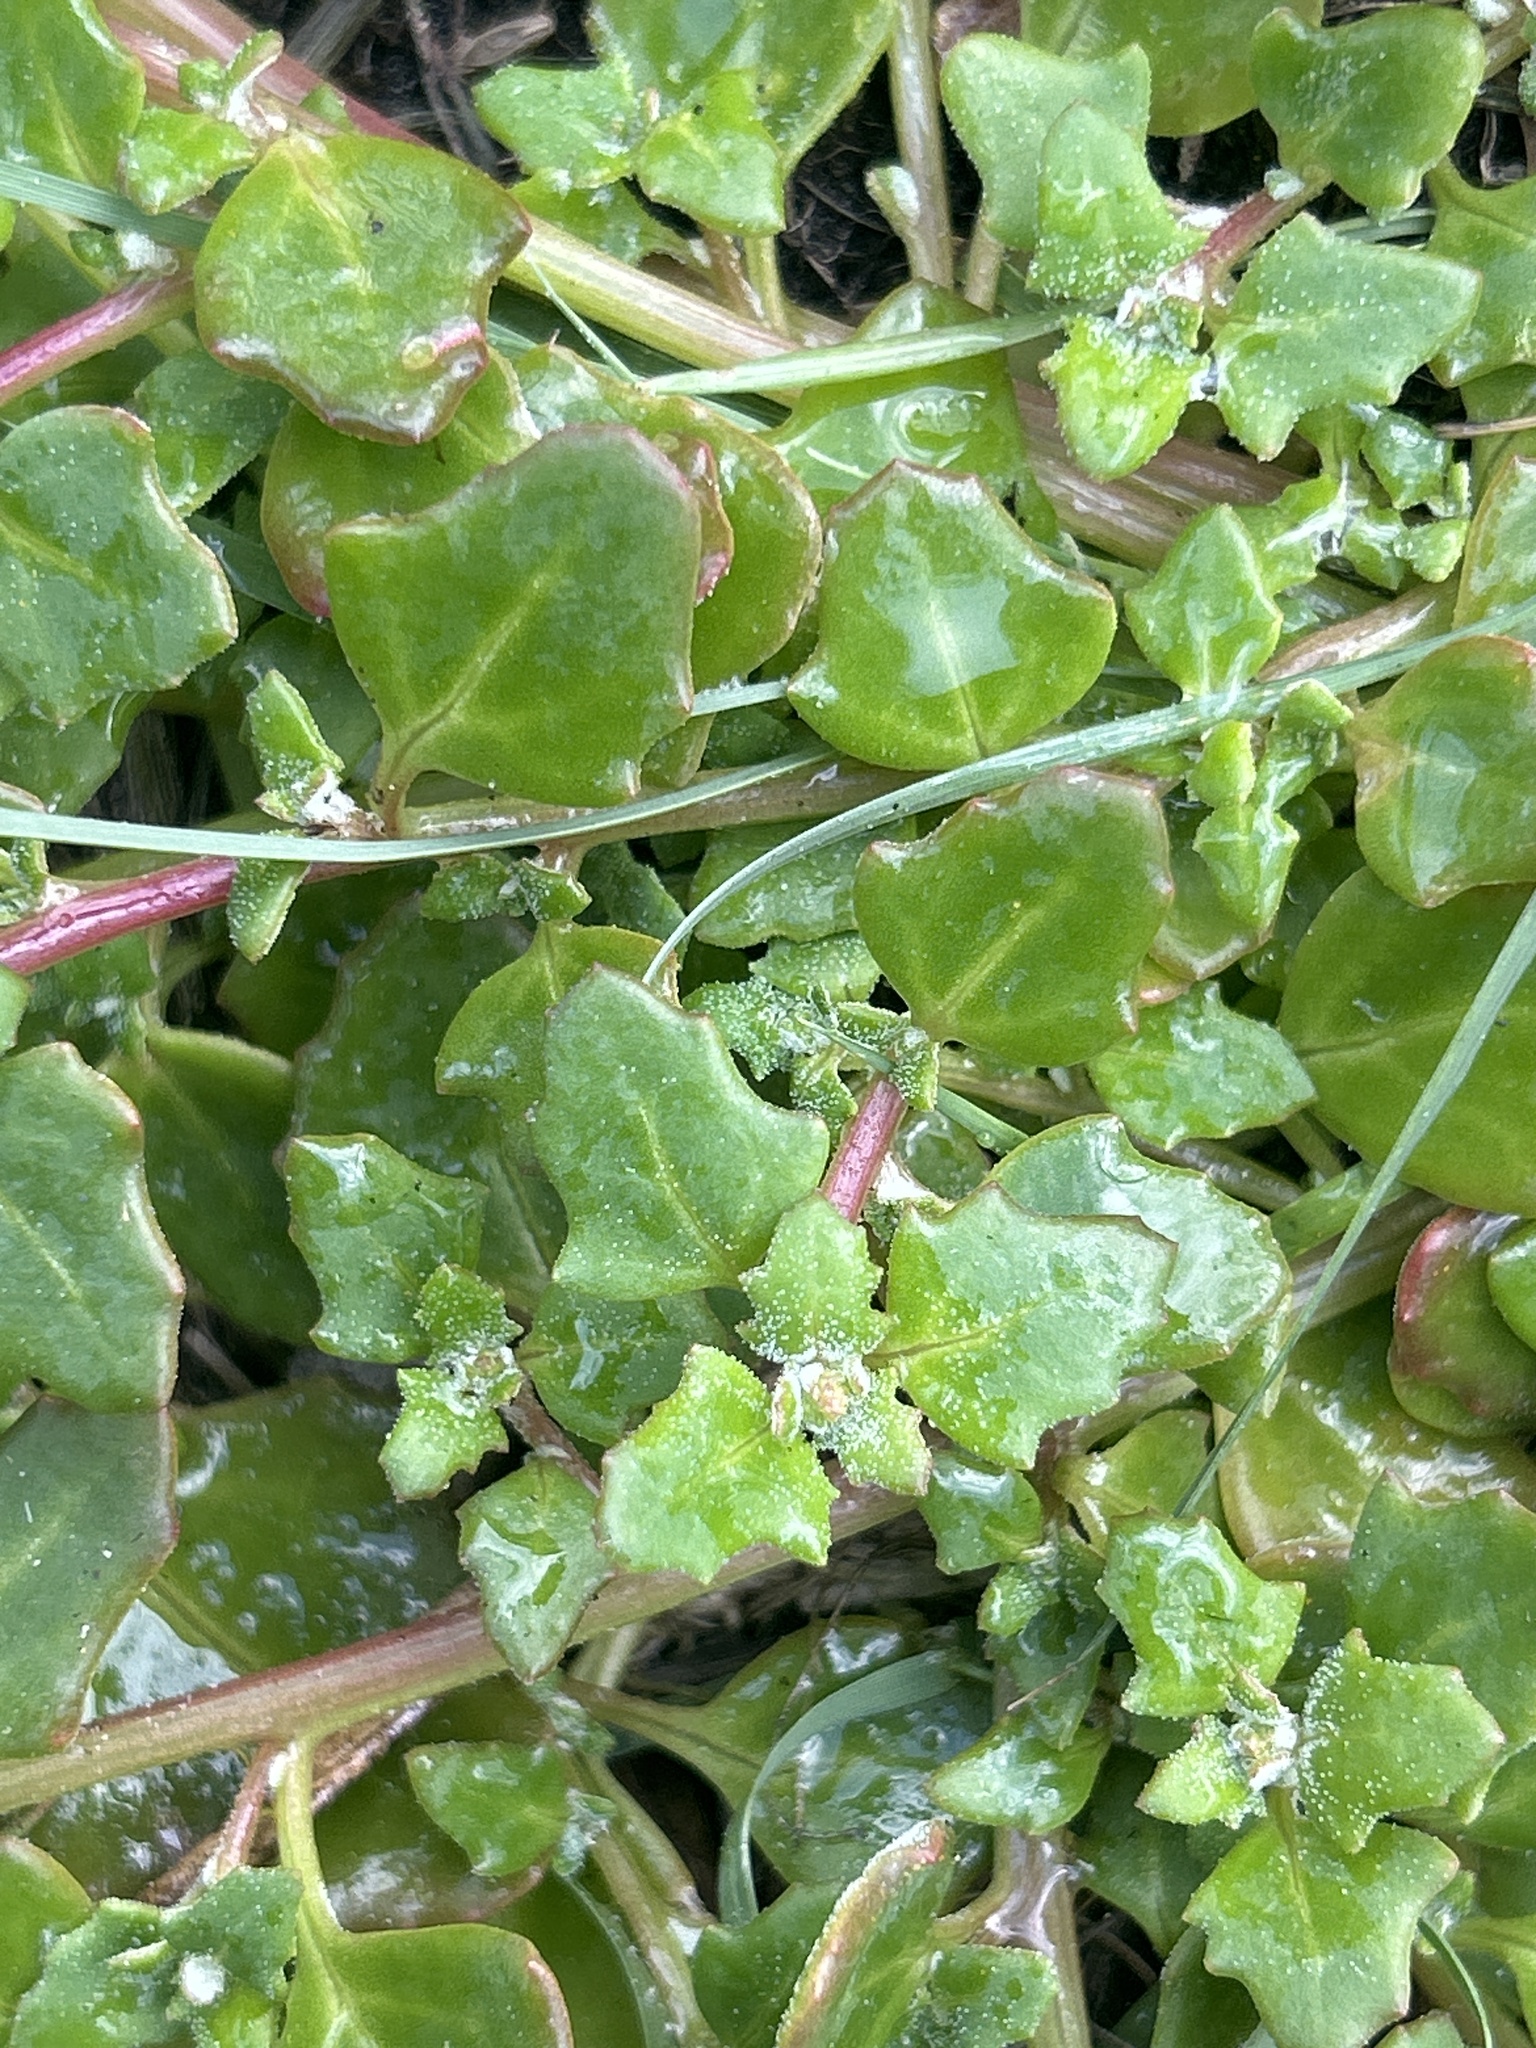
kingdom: Plantae
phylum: Tracheophyta
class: Magnoliopsida
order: Caryophyllales
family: Amaranthaceae
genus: Oxybasis
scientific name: Oxybasis ambigua
